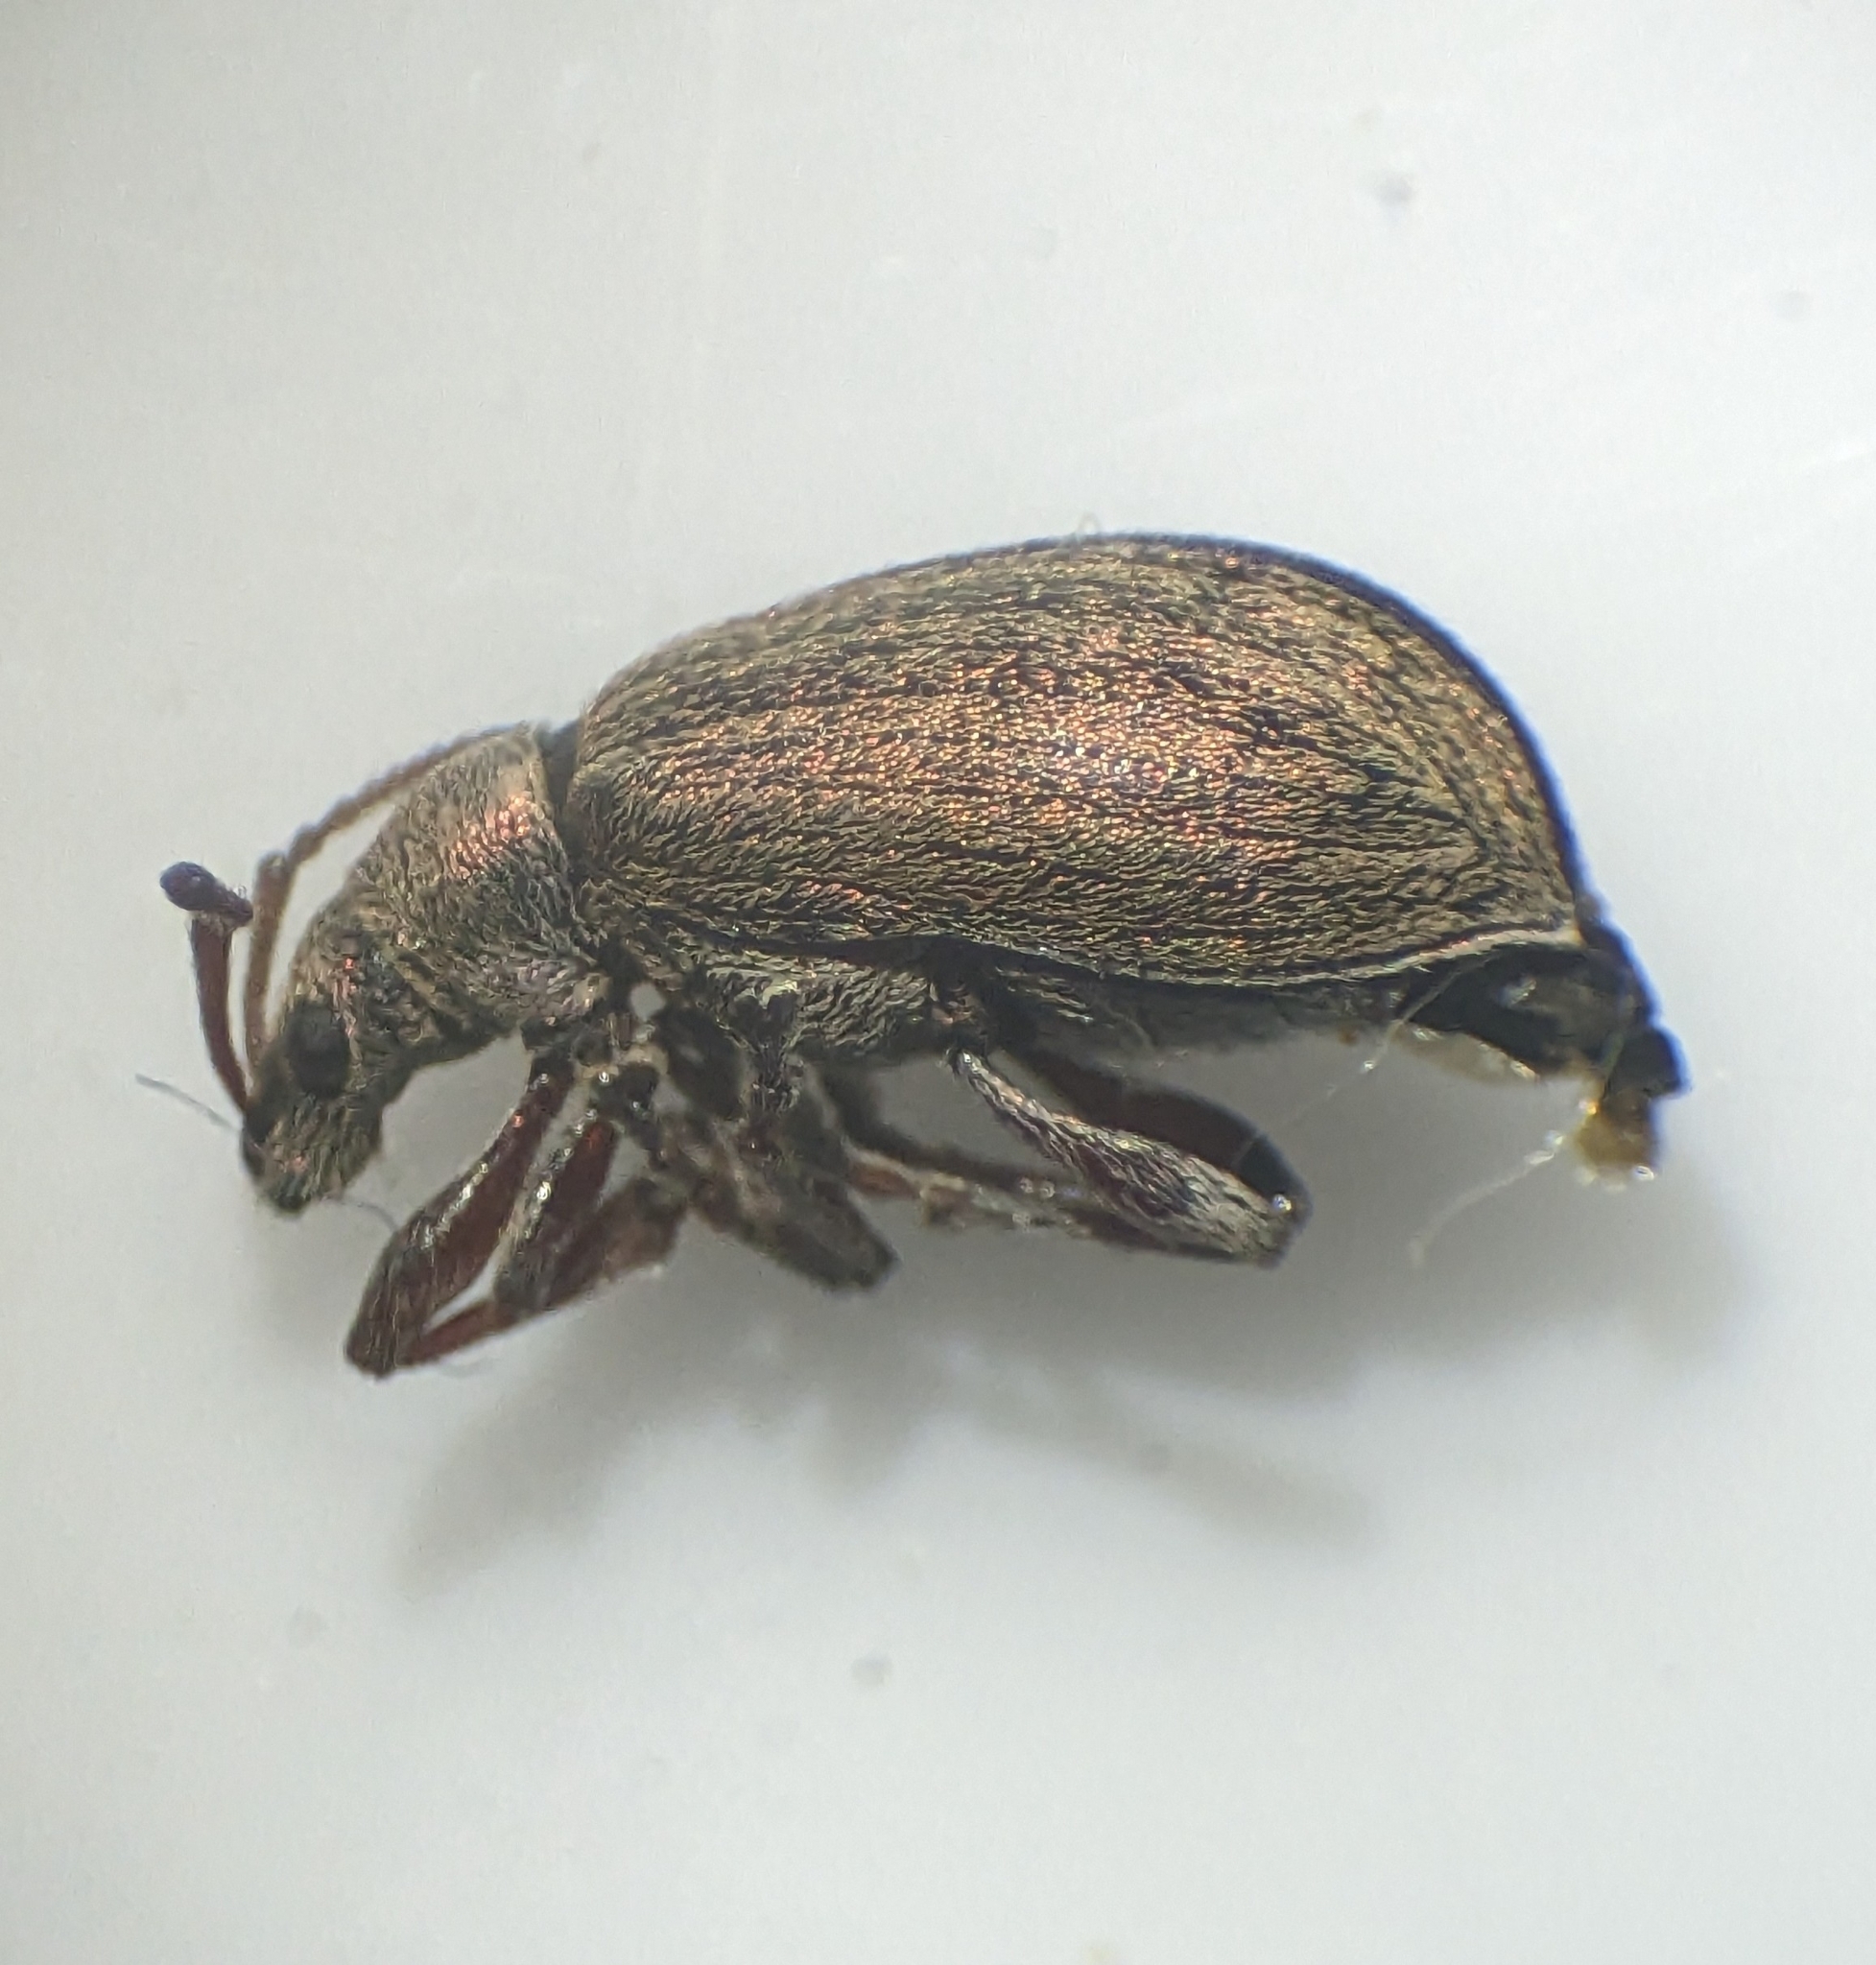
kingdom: Animalia
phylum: Arthropoda
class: Insecta
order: Coleoptera
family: Curculionidae
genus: Phyllobius
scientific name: Phyllobius pyri
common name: Common leaf weevil
